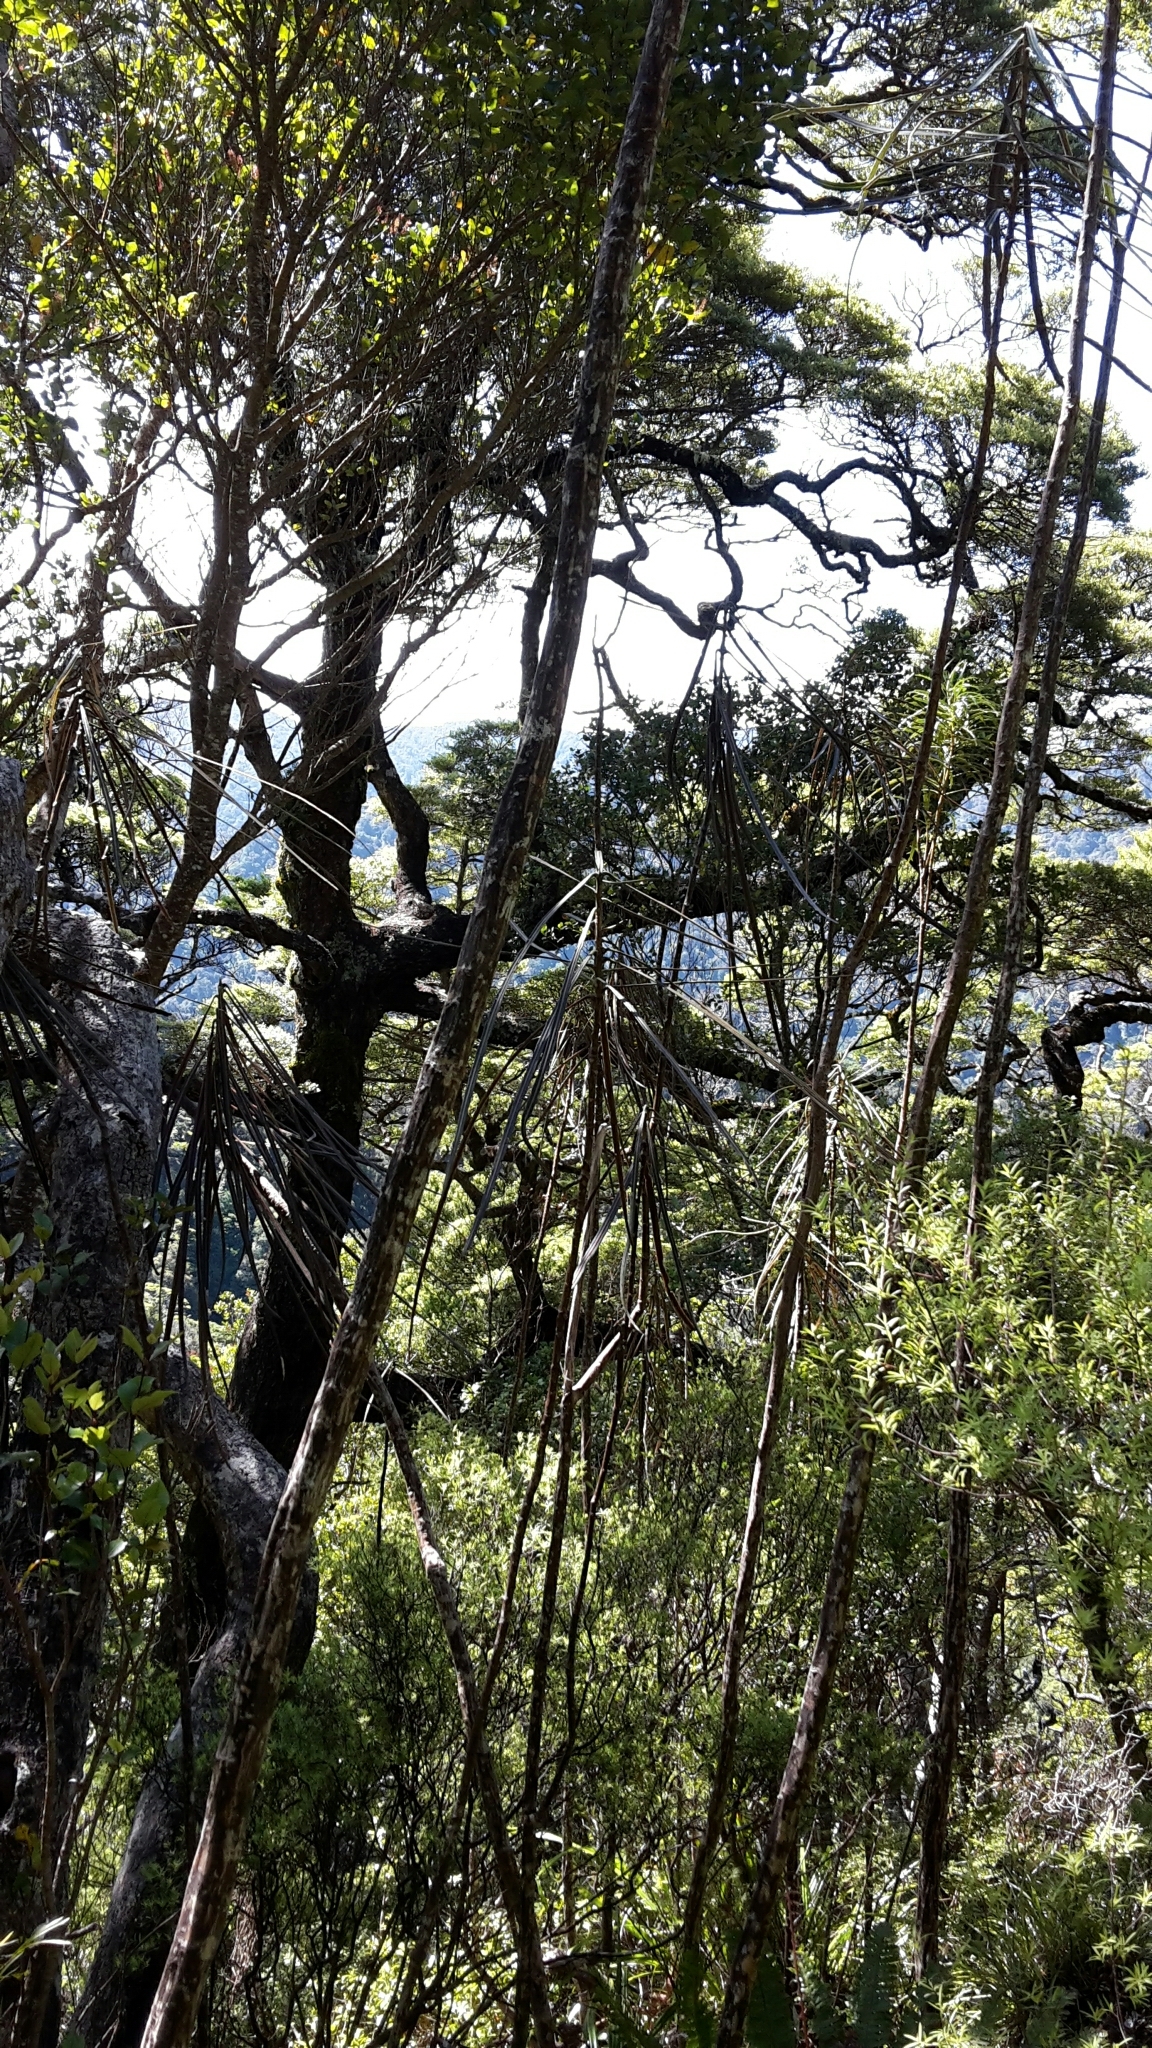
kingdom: Plantae
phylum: Tracheophyta
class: Magnoliopsida
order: Apiales
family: Araliaceae
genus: Pseudopanax
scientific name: Pseudopanax crassifolius
